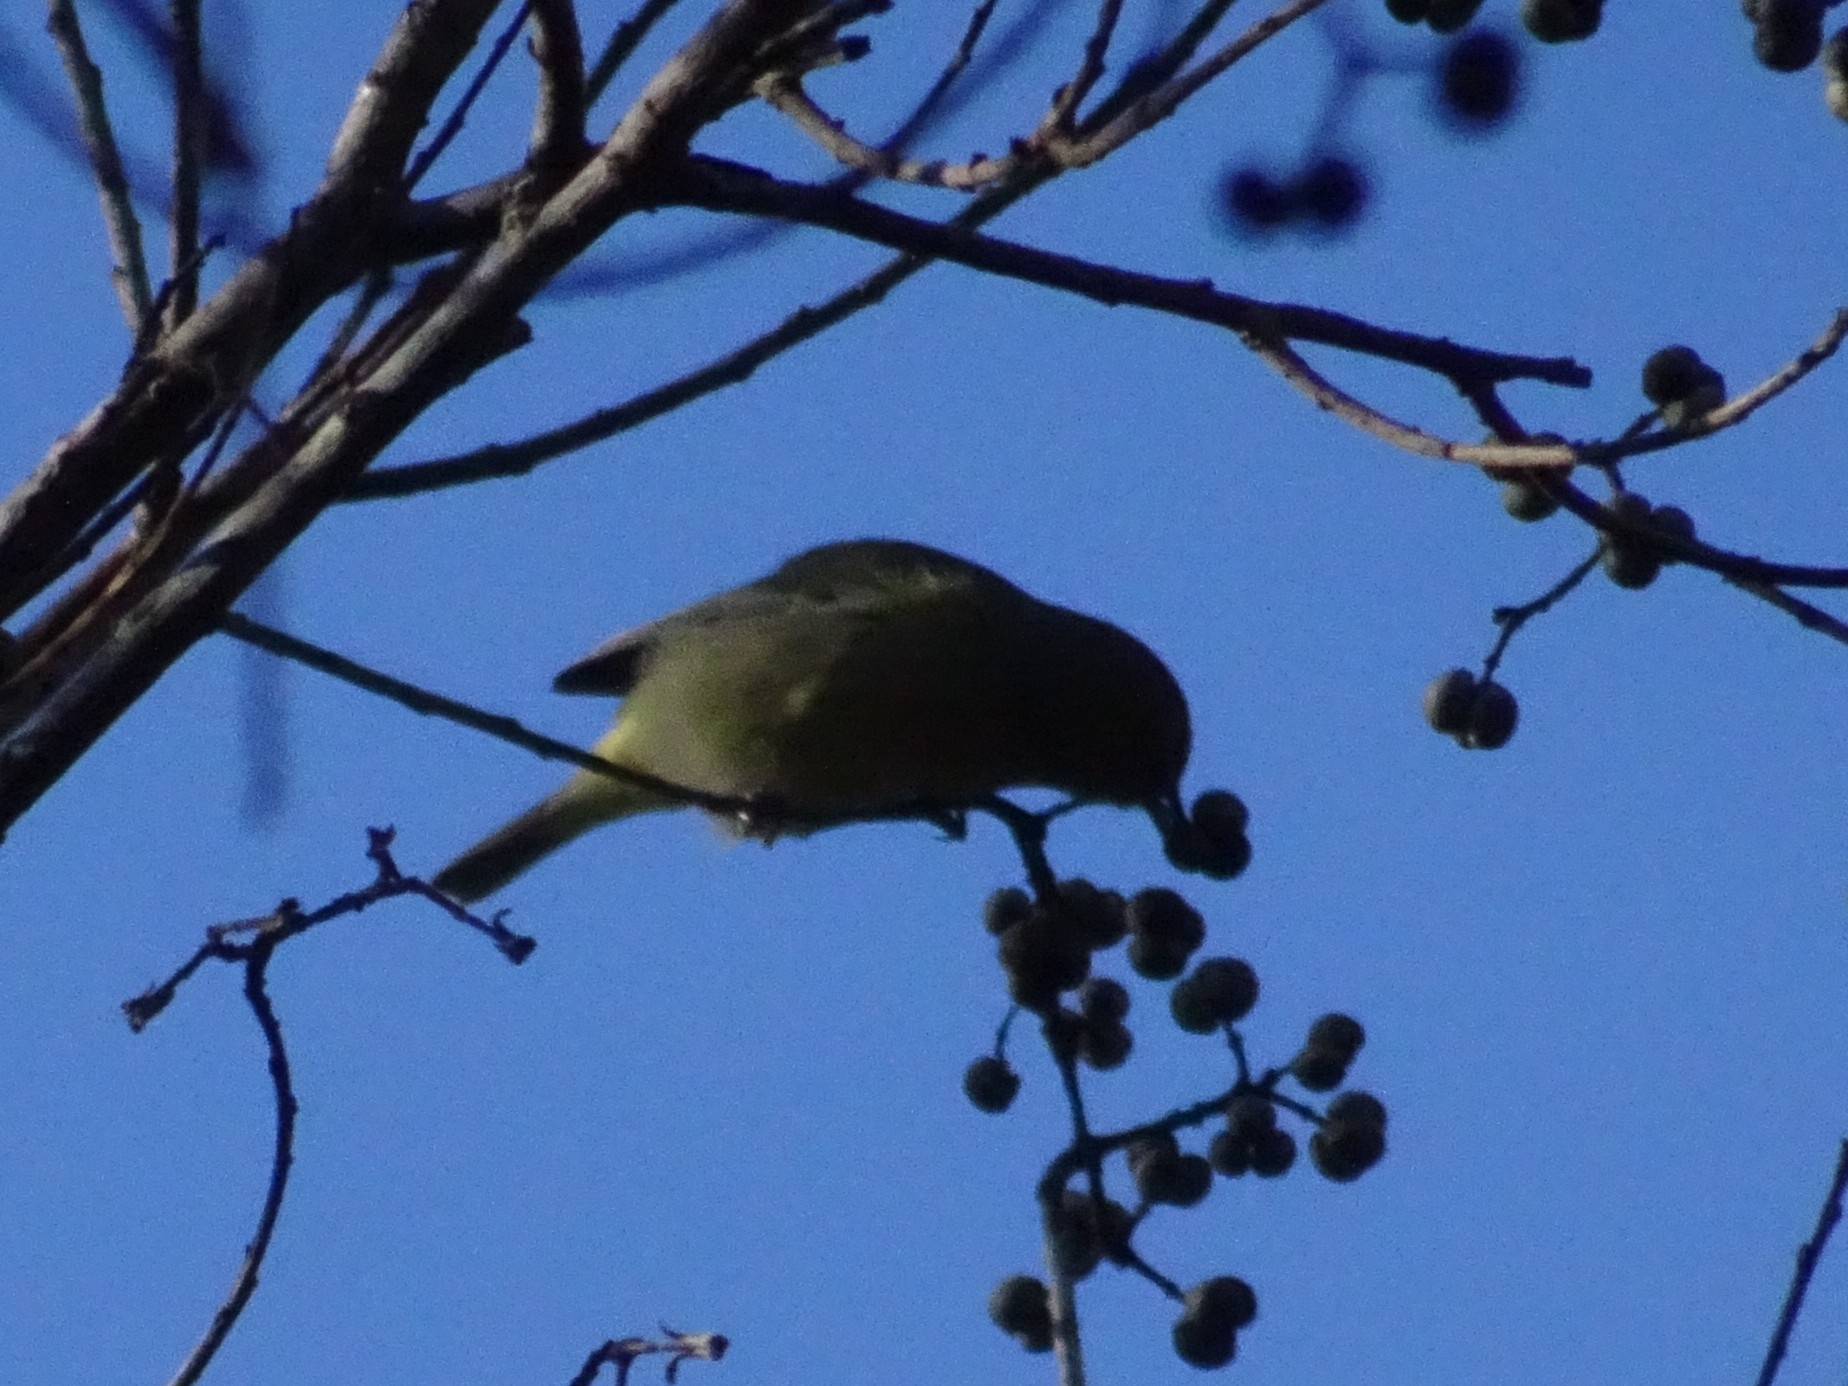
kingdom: Animalia
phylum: Chordata
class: Aves
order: Passeriformes
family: Parulidae
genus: Leiothlypis
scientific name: Leiothlypis celata
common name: Orange-crowned warbler
